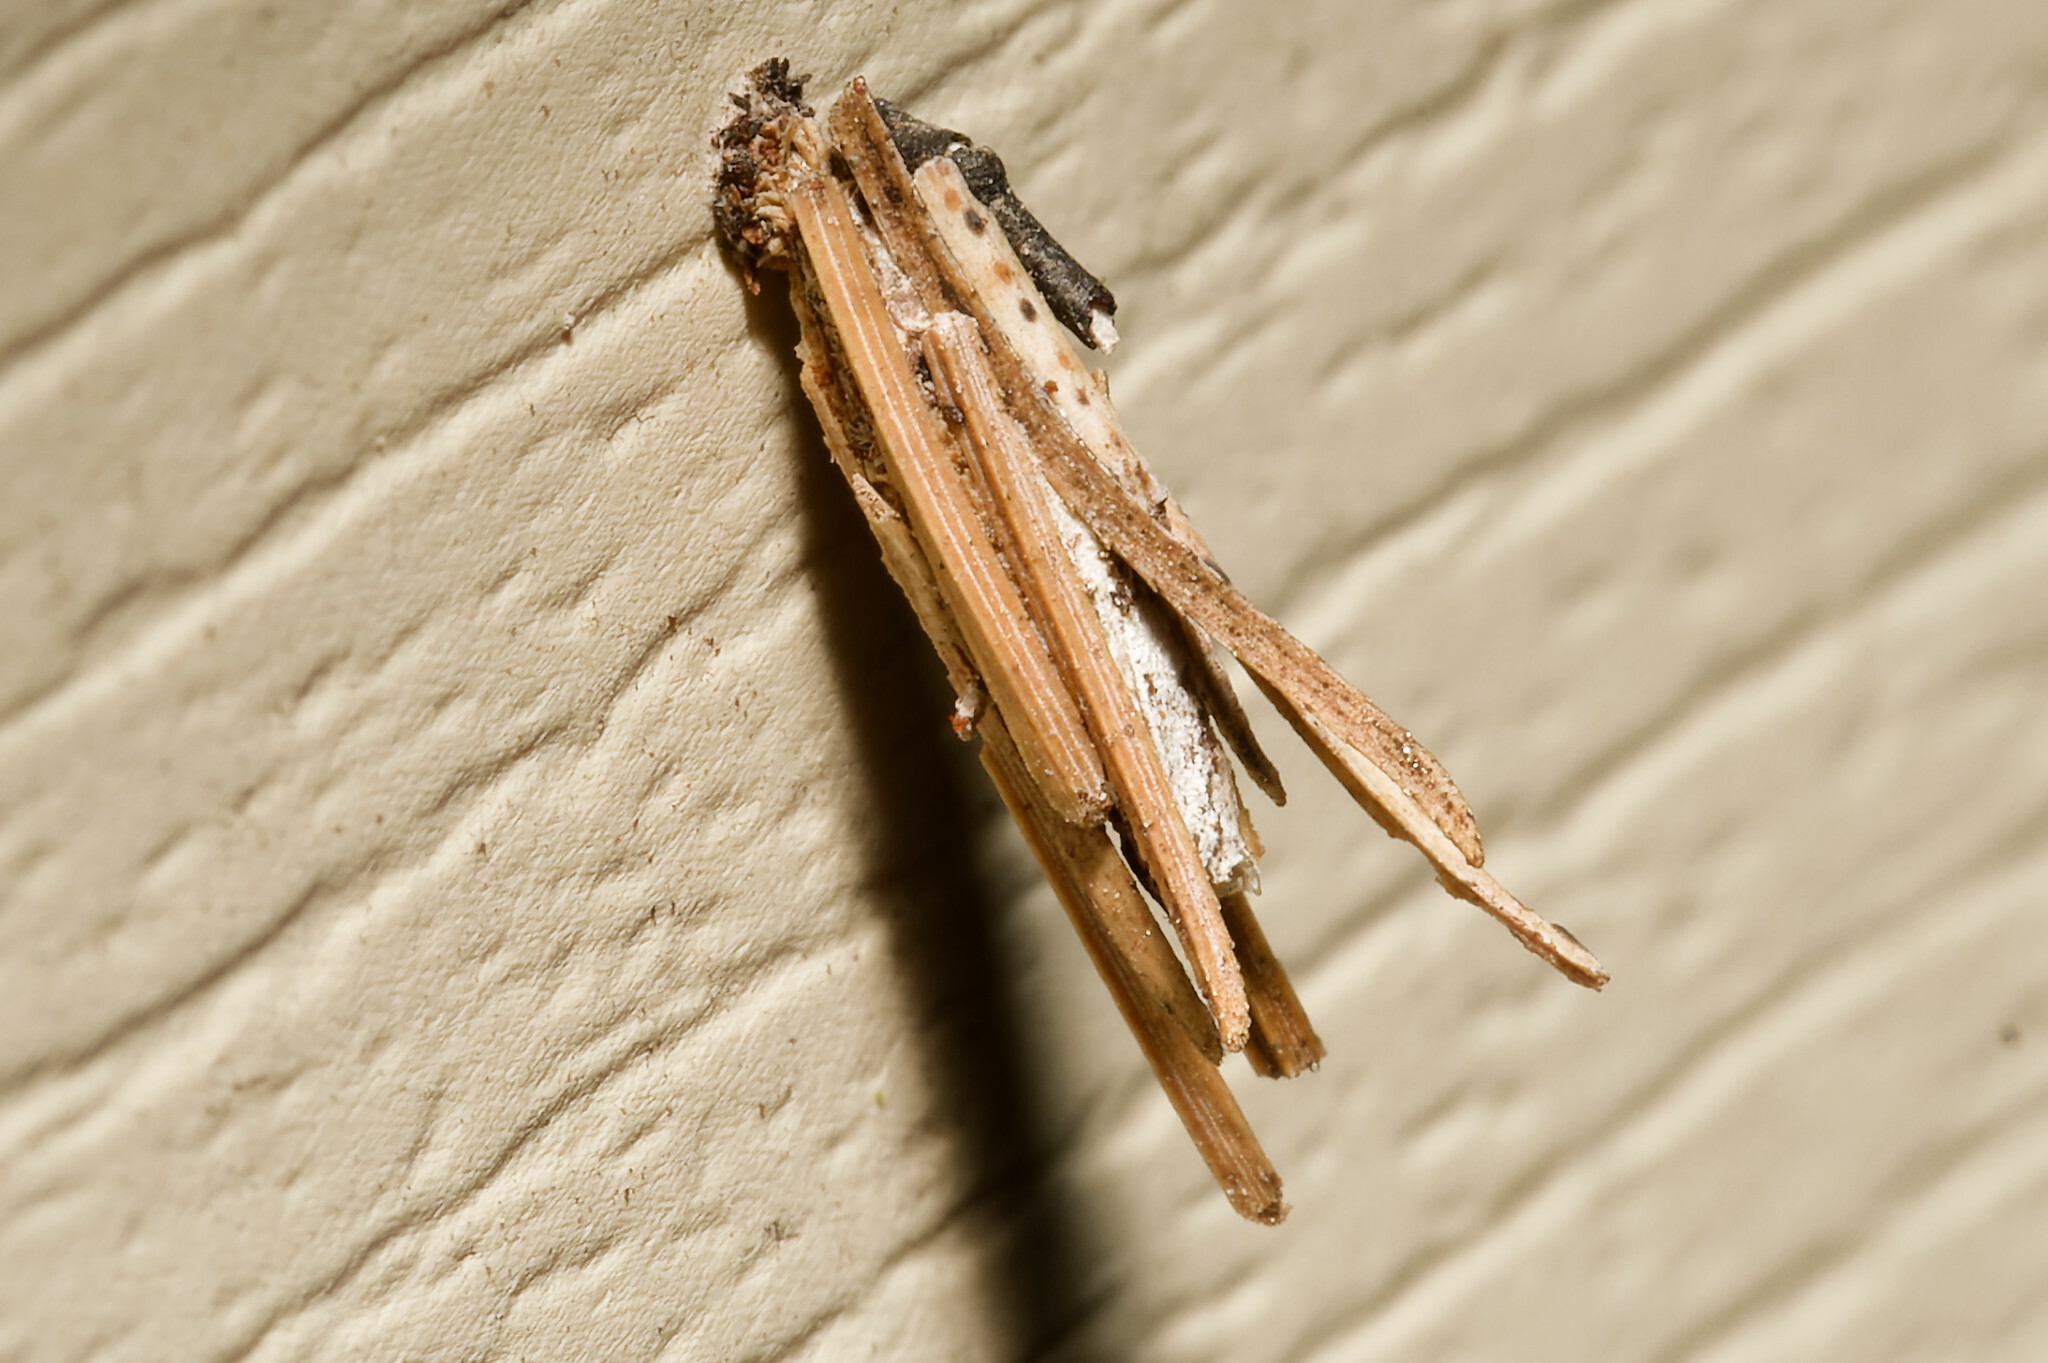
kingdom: Animalia
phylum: Arthropoda
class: Insecta
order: Lepidoptera
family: Psychidae
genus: Psyche
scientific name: Psyche casta
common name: Common sweep
